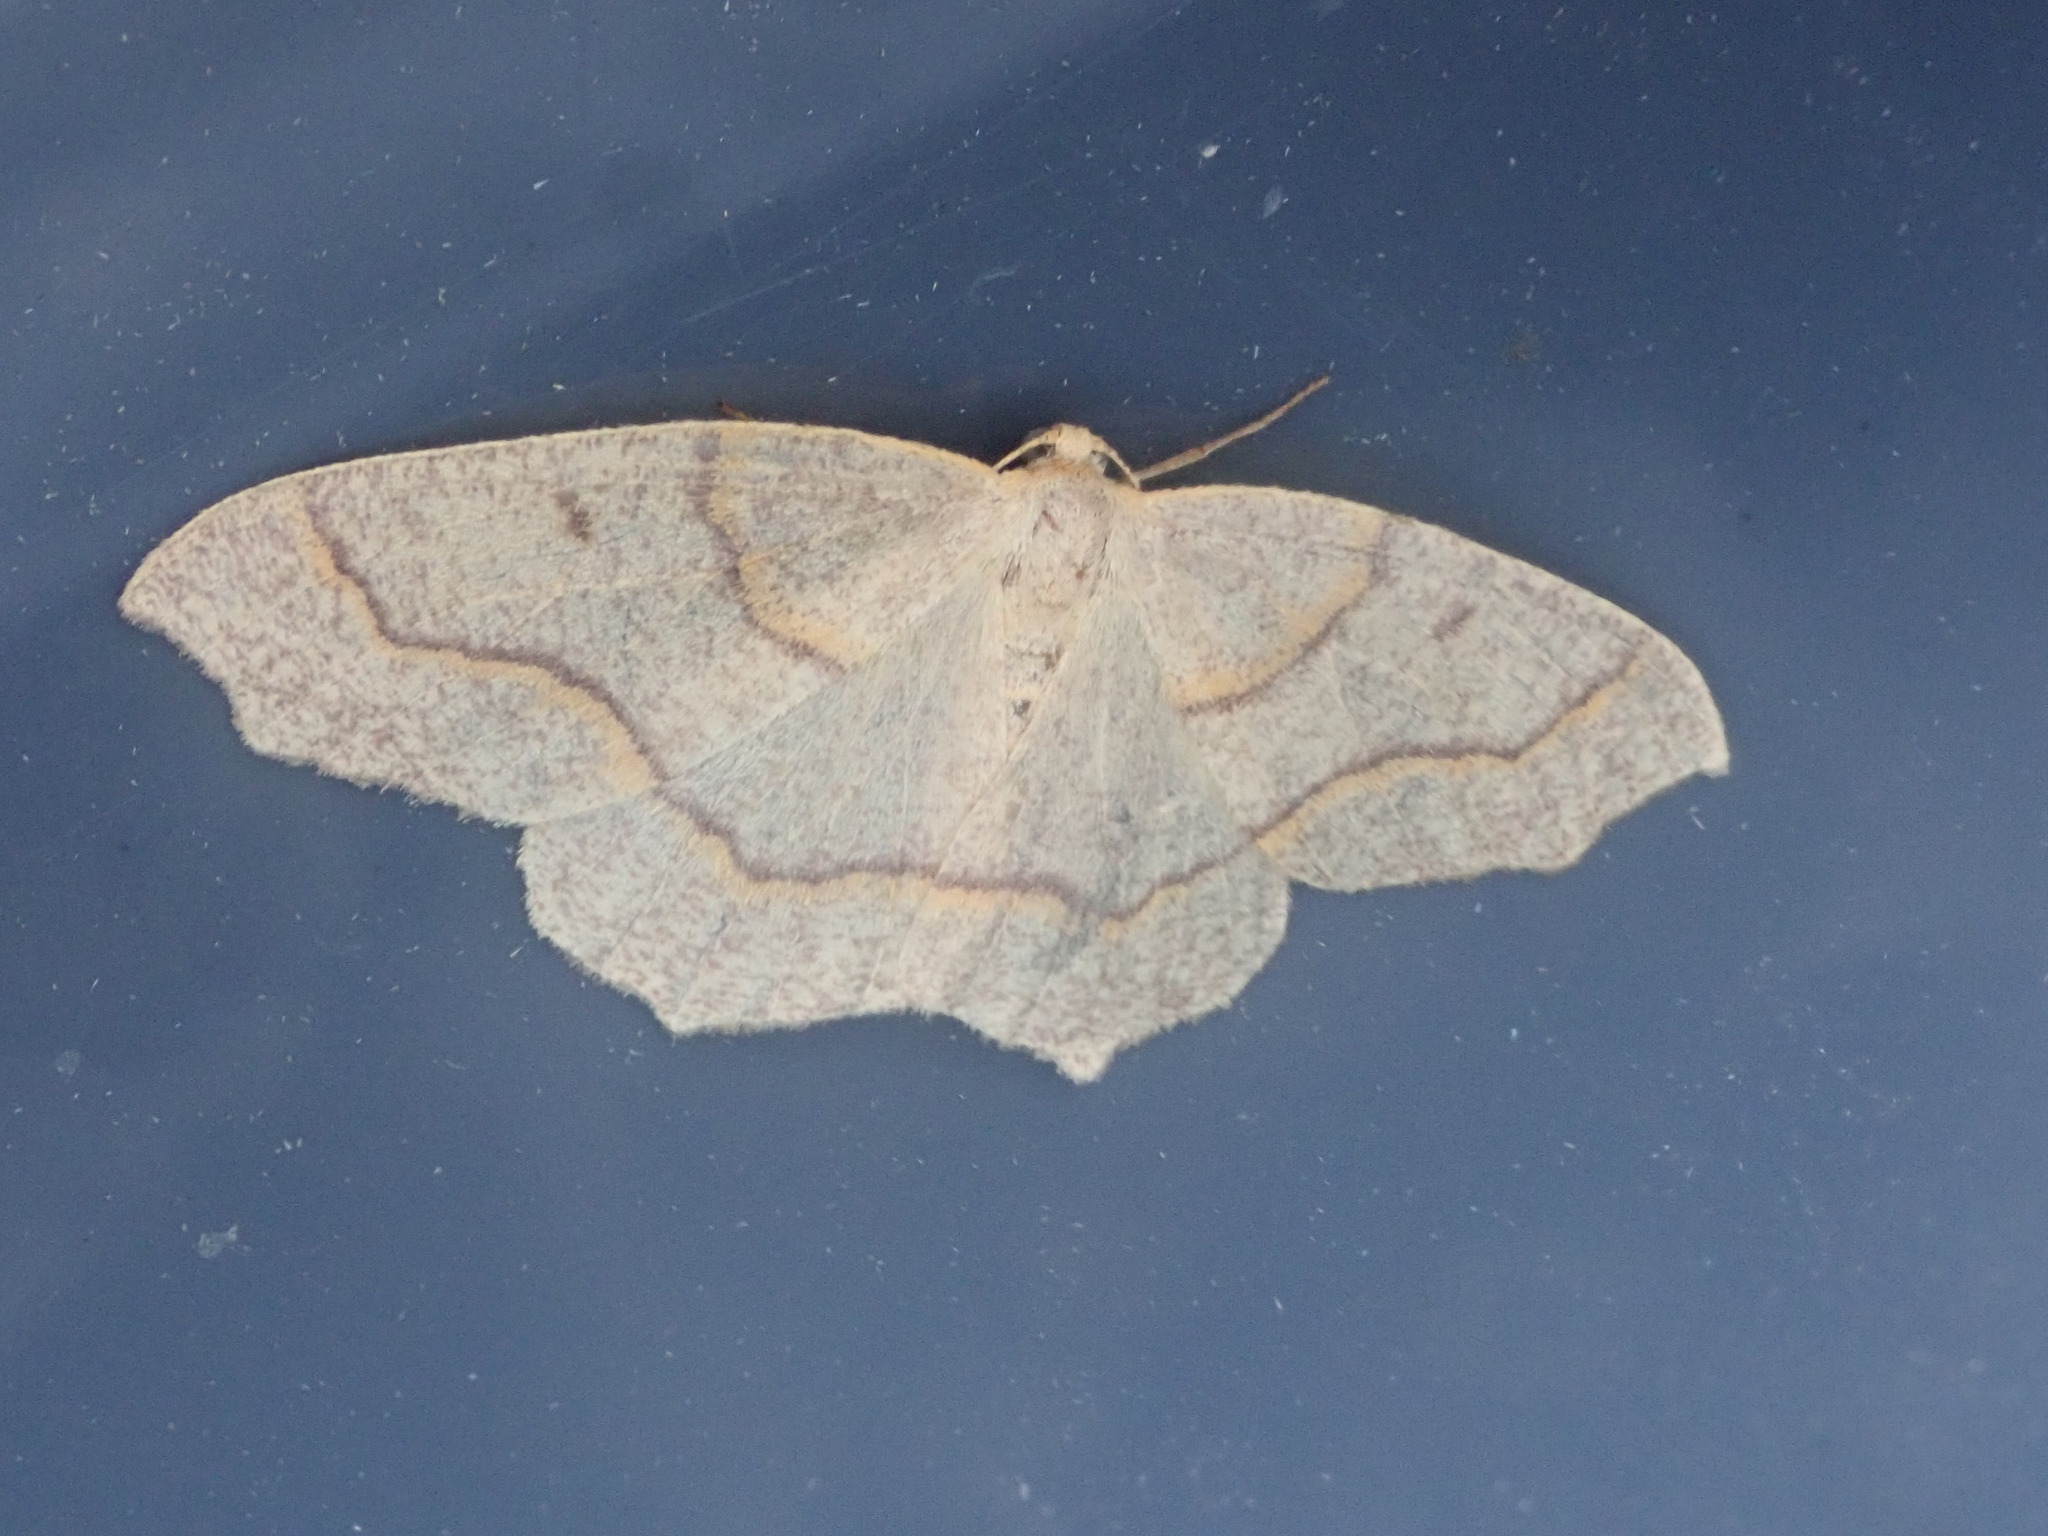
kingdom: Animalia
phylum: Arthropoda
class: Insecta
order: Lepidoptera
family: Geometridae
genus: Lambdina
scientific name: Lambdina fiscellaria
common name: Hemlock looper
